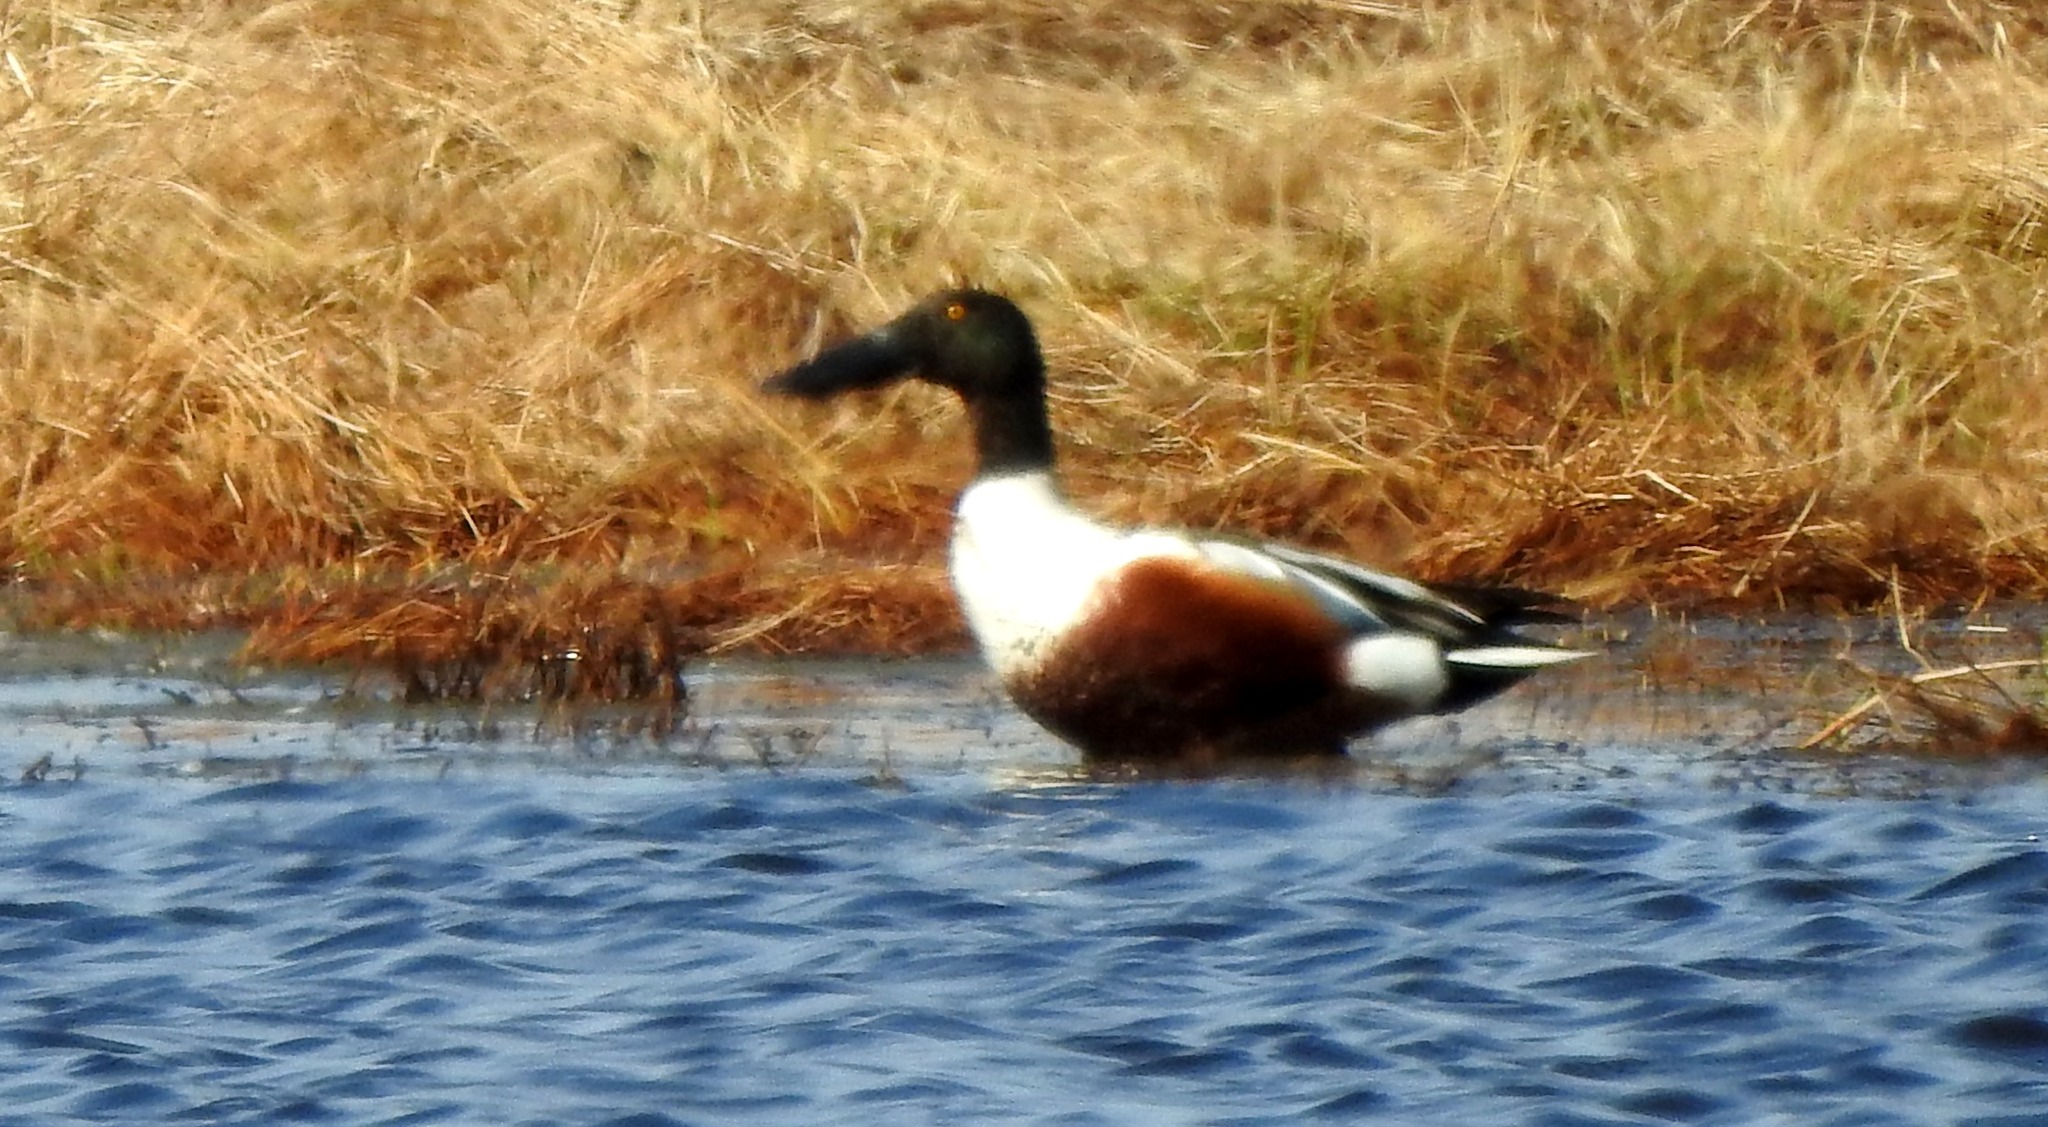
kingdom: Animalia
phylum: Chordata
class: Aves
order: Anseriformes
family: Anatidae
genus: Spatula
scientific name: Spatula clypeata
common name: Northern shoveler
